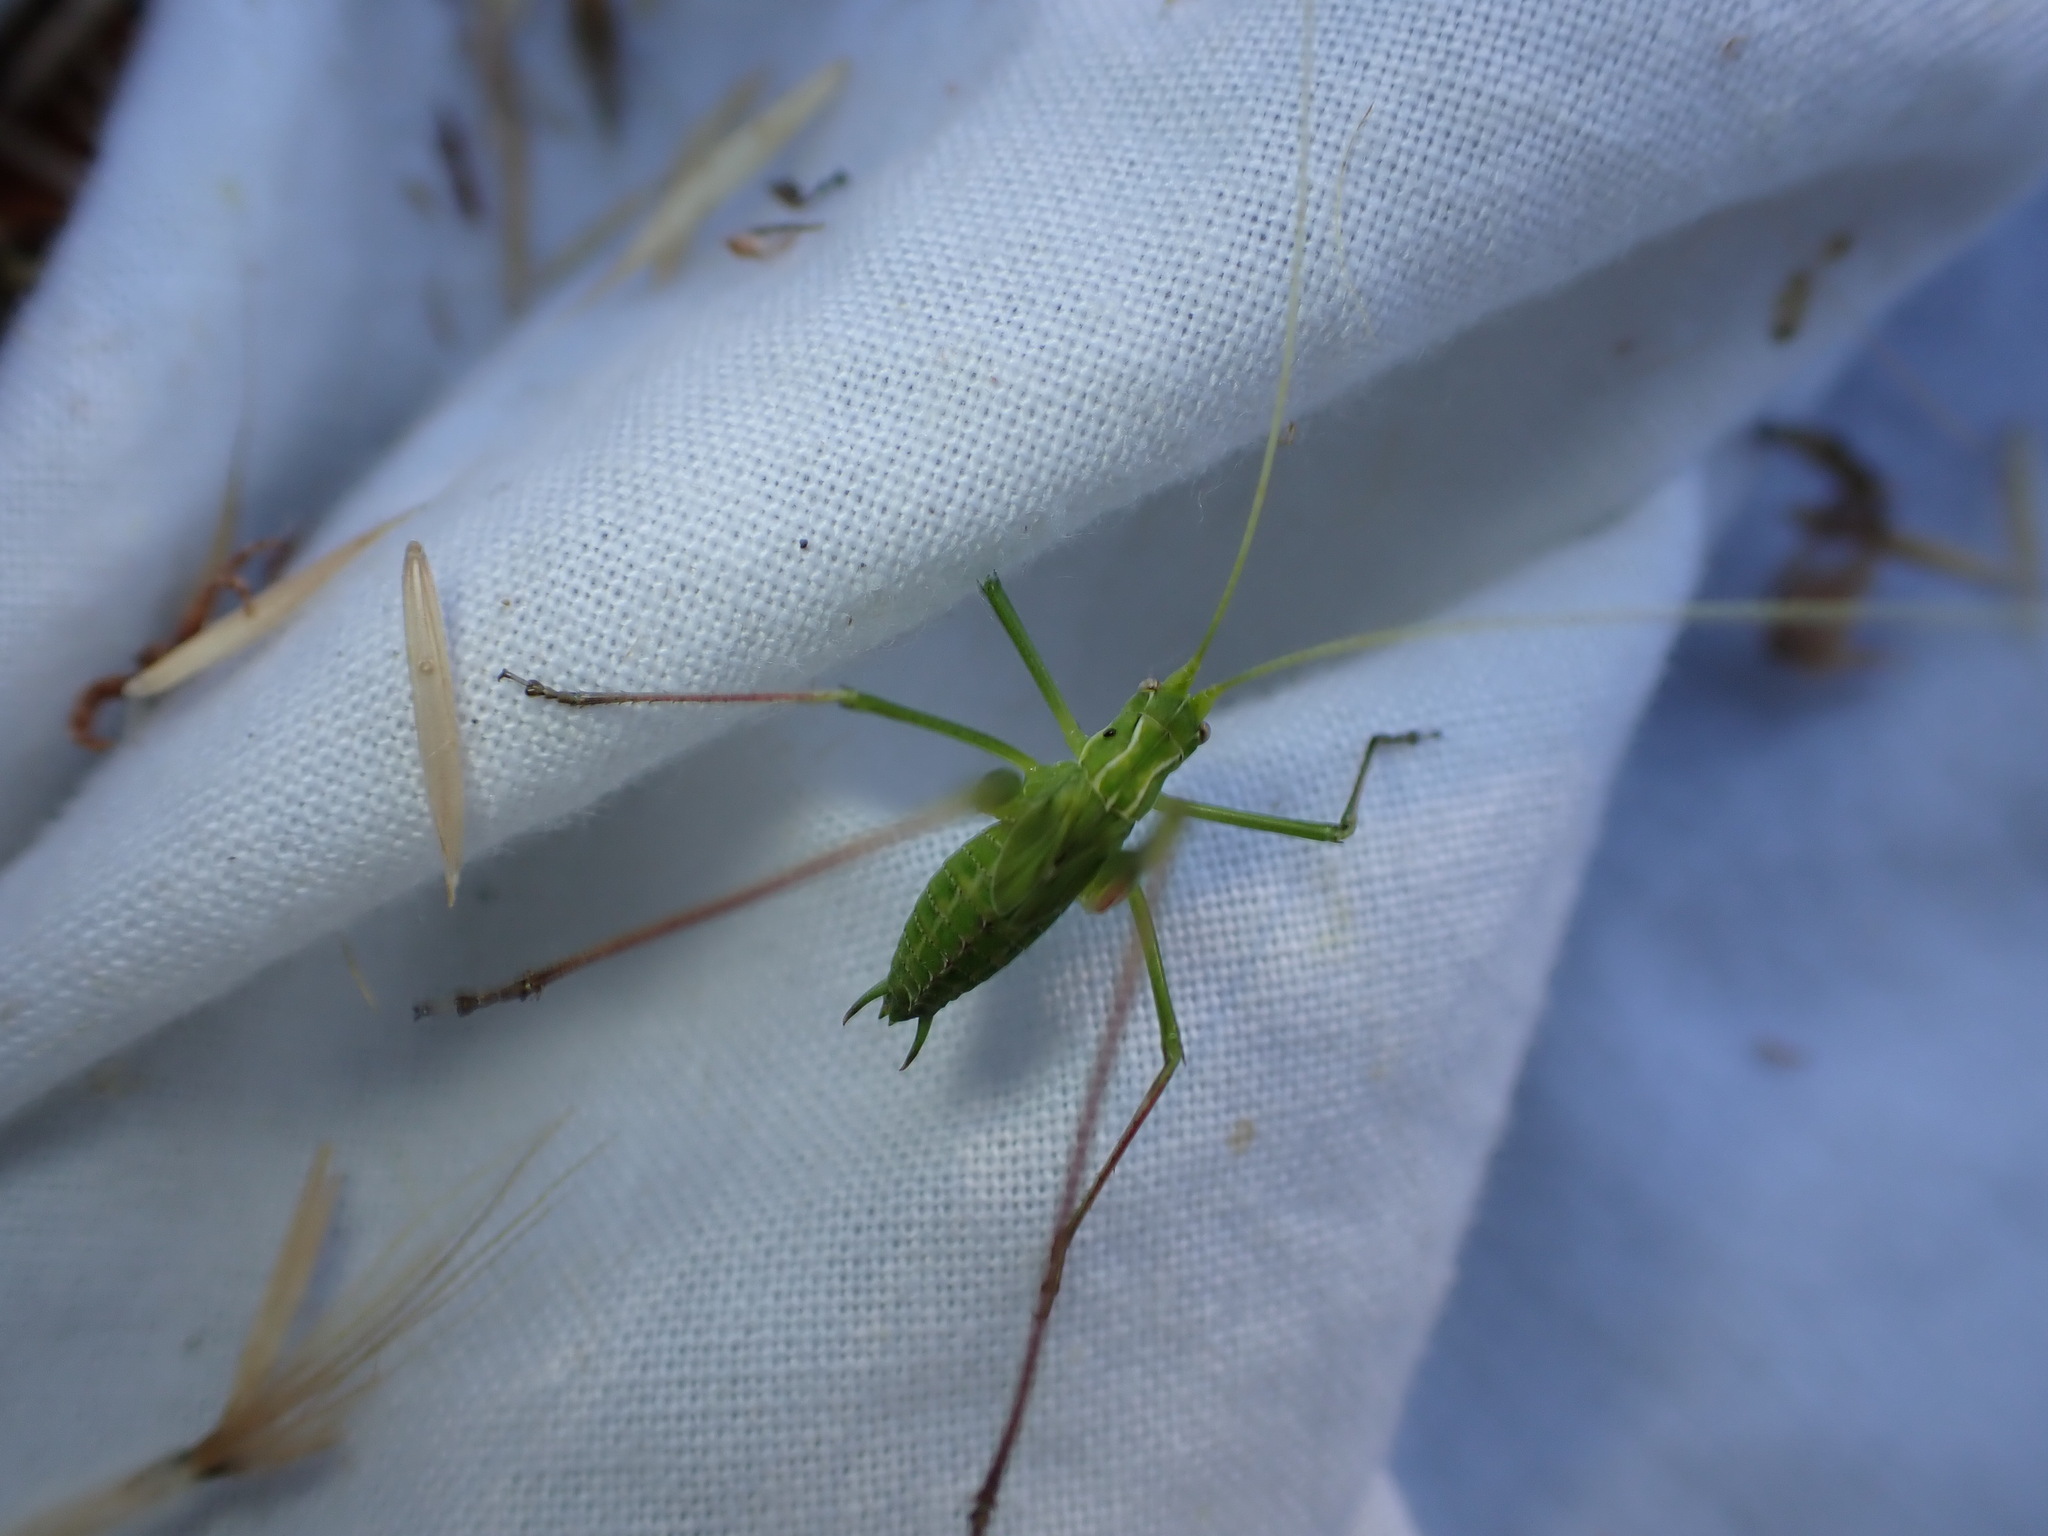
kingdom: Animalia
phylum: Arthropoda
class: Insecta
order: Orthoptera
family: Tettigoniidae
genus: Tylopsis
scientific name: Tylopsis lilifolia
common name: Lily bush-cricket
